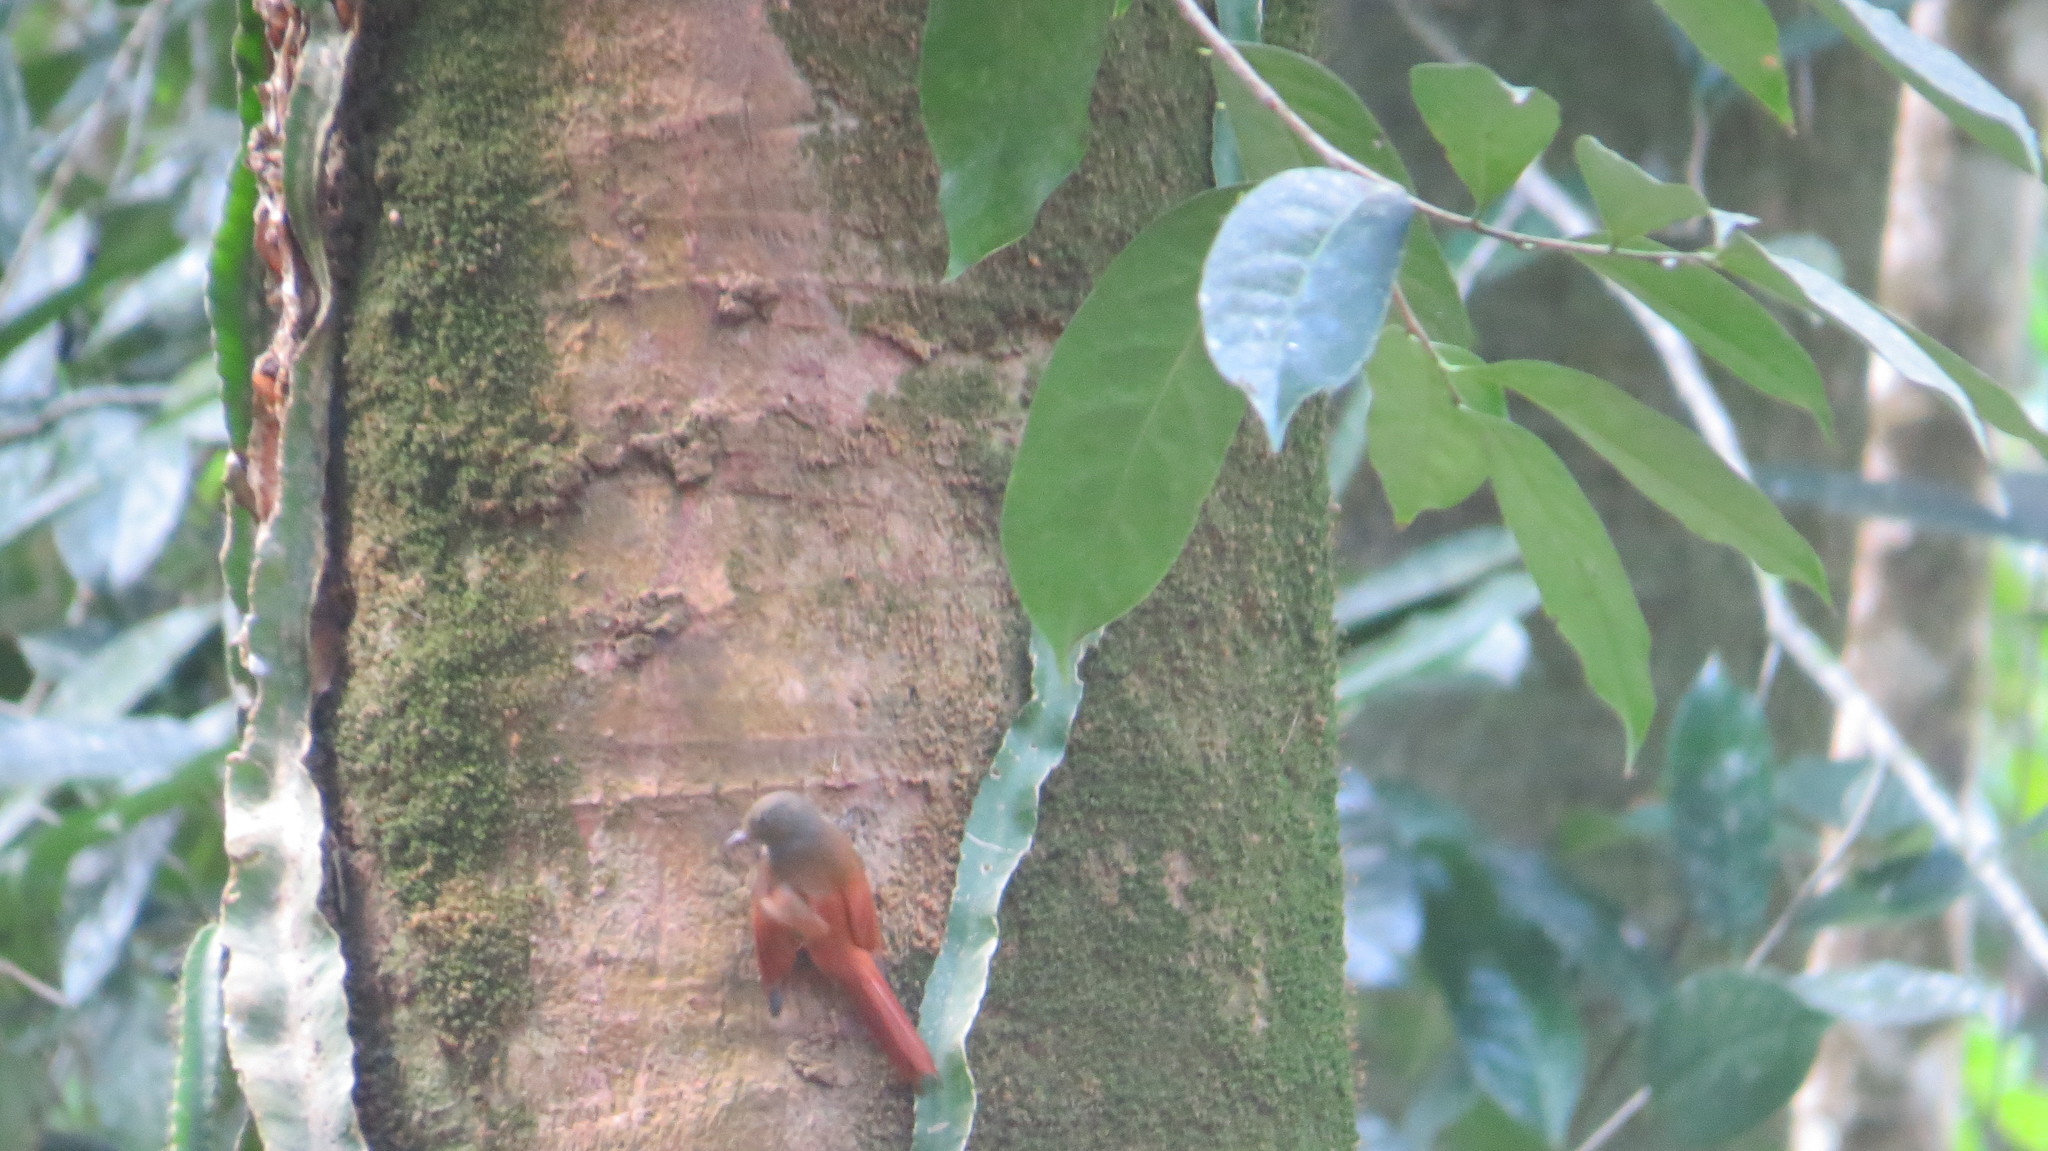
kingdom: Animalia
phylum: Chordata
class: Aves
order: Passeriformes
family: Furnariidae
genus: Sittasomus
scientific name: Sittasomus griseicapillus
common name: Olivaceous woodcreeper
